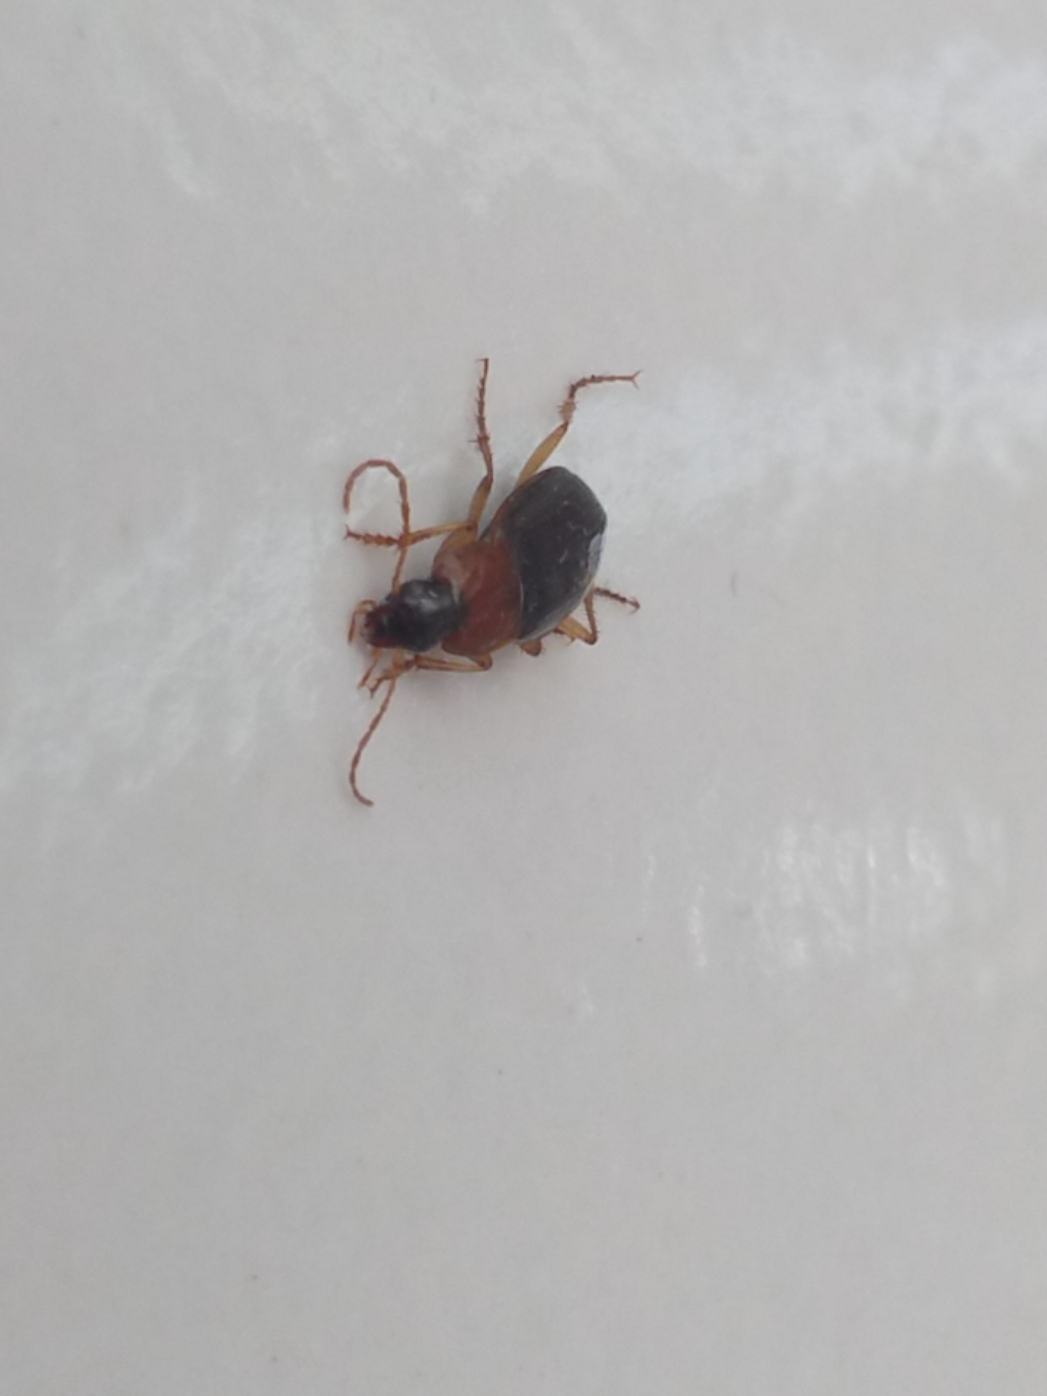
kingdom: Animalia
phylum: Arthropoda
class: Insecta
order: Coleoptera
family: Carabidae
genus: Calathus
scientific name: Calathus melanocephalus
